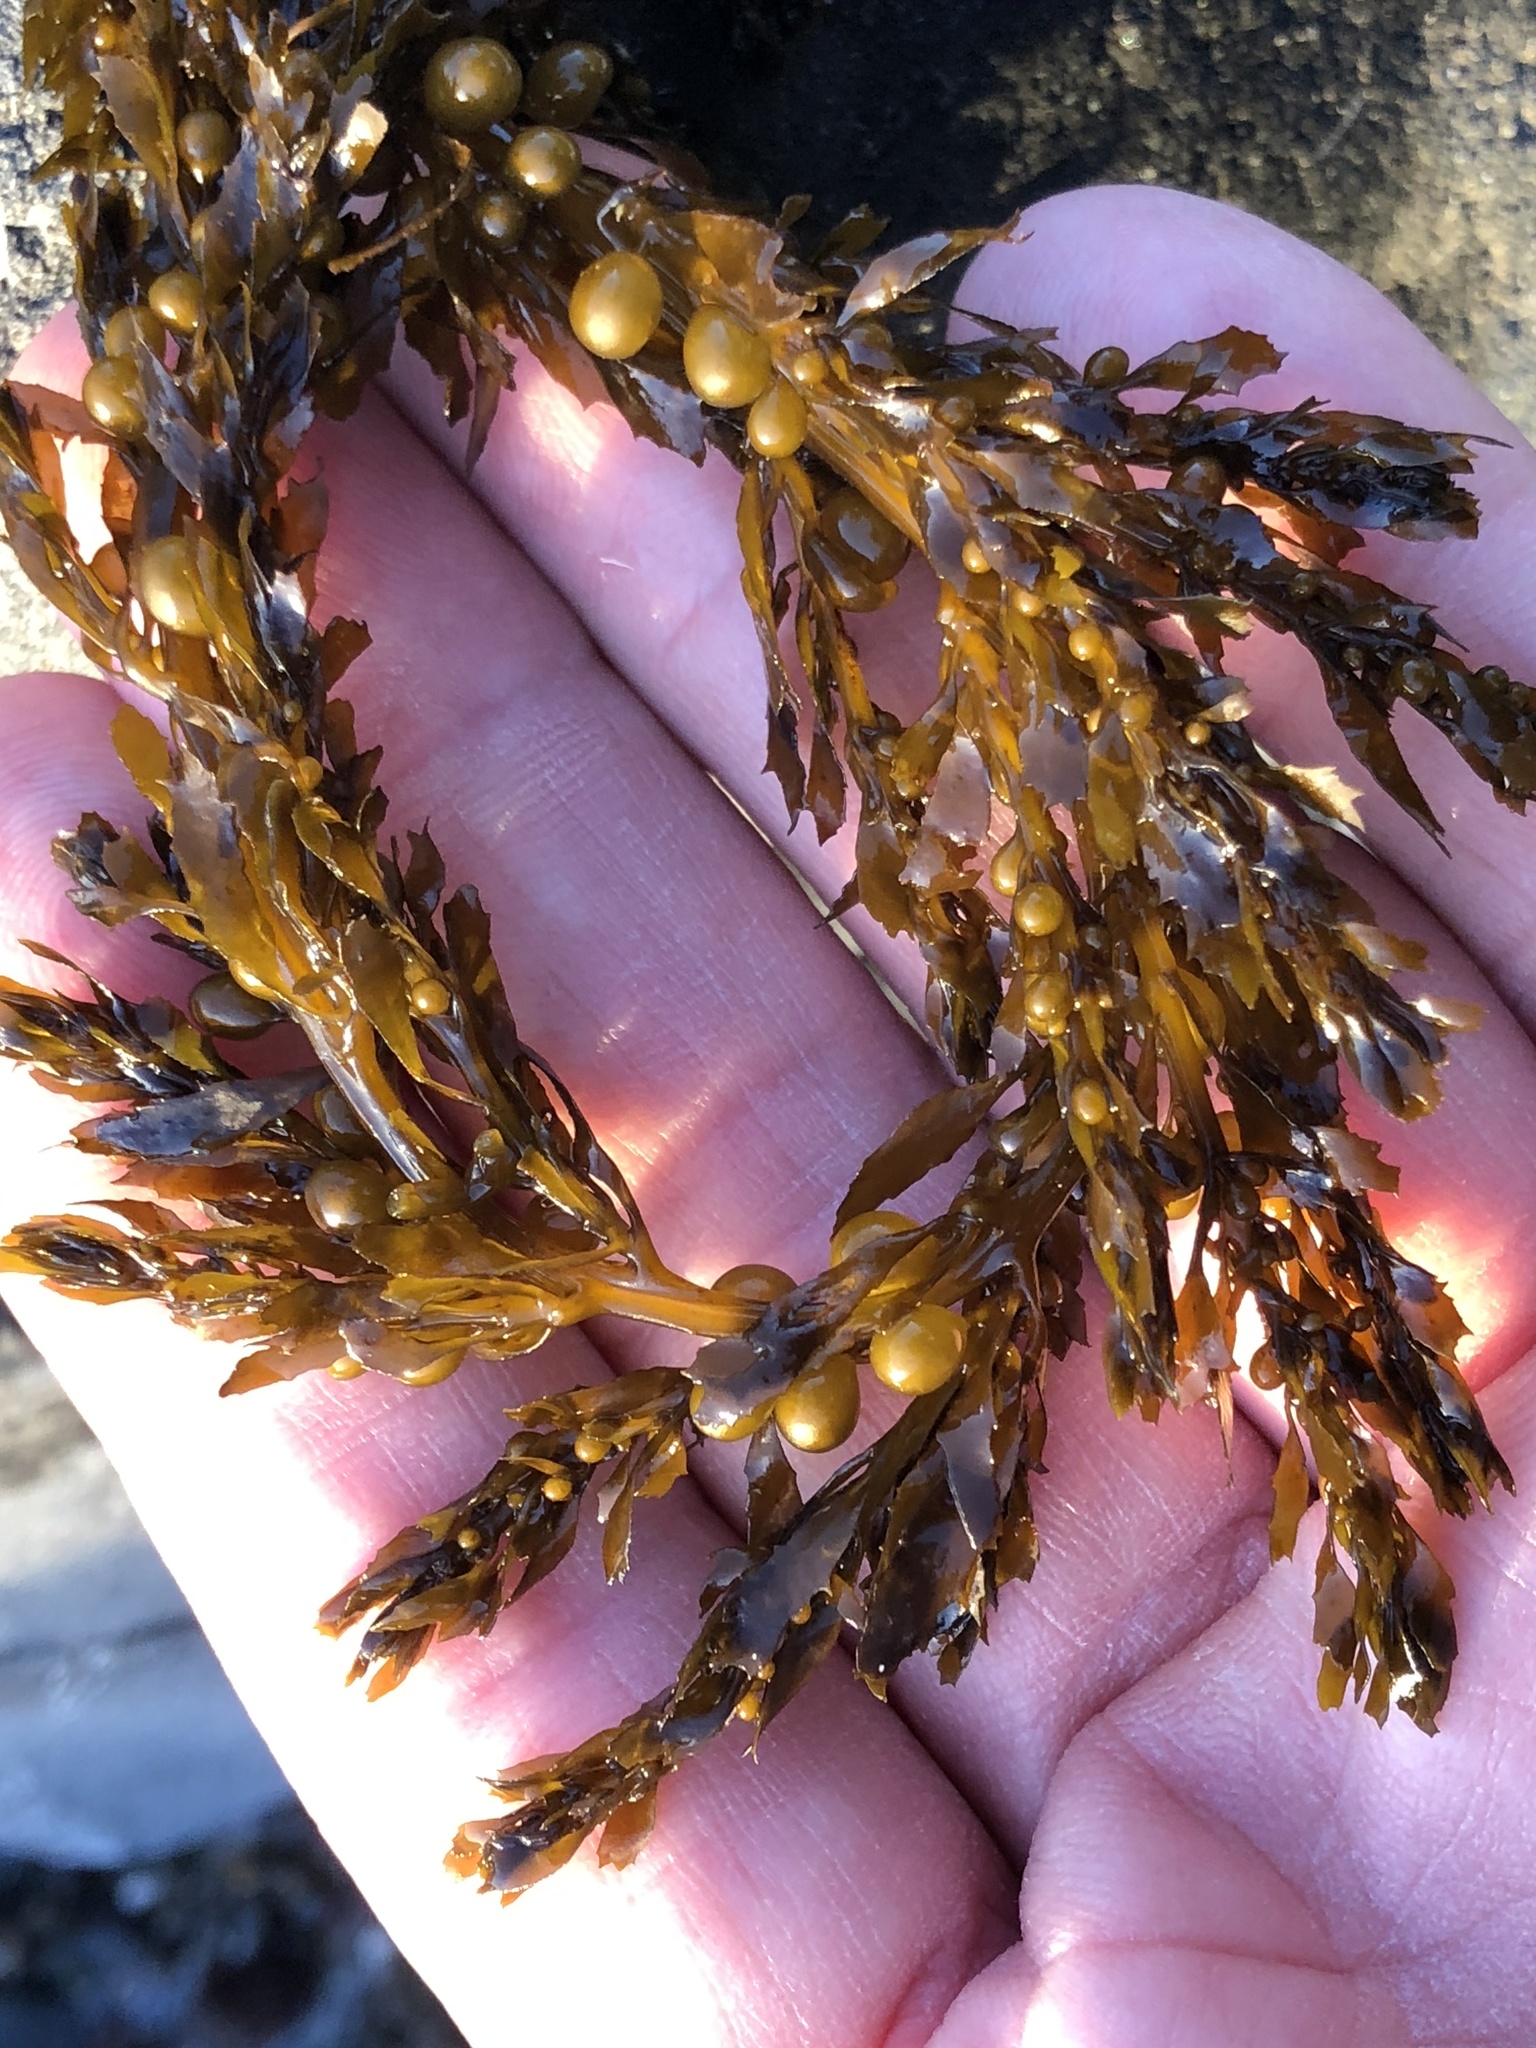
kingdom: Chromista
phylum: Ochrophyta
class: Phaeophyceae
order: Fucales
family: Sargassaceae
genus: Sargassum
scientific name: Sargassum muticum
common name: Japweed
